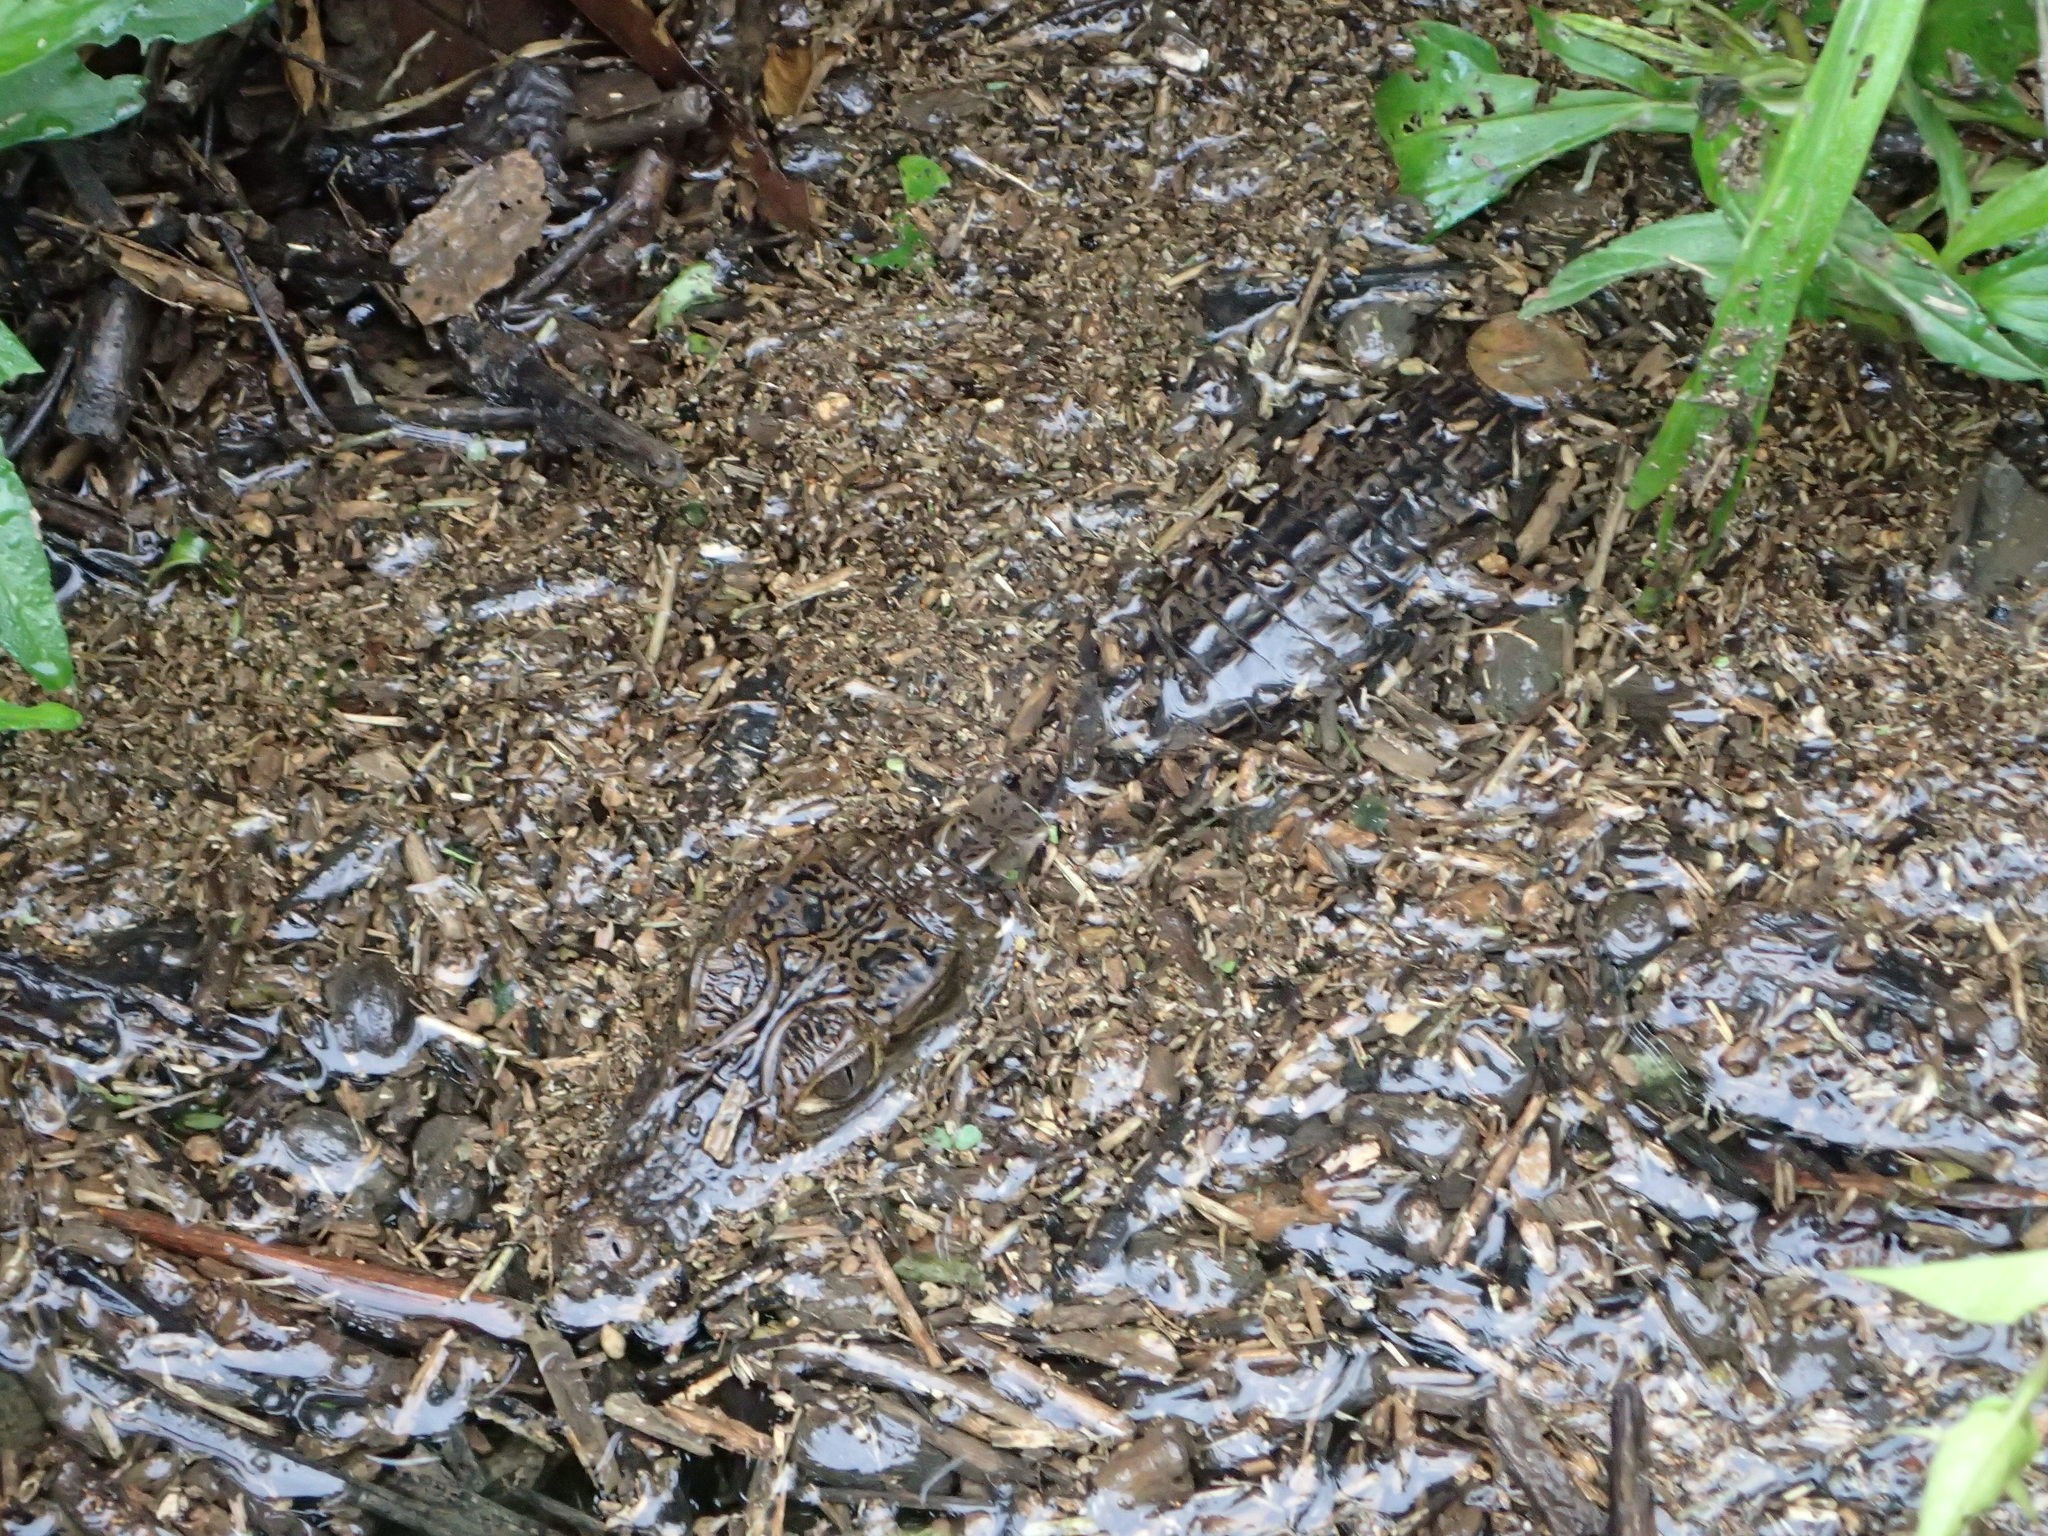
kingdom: Animalia
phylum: Chordata
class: Crocodylia
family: Alligatoridae
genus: Caiman
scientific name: Caiman crocodilus
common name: Common caiman
